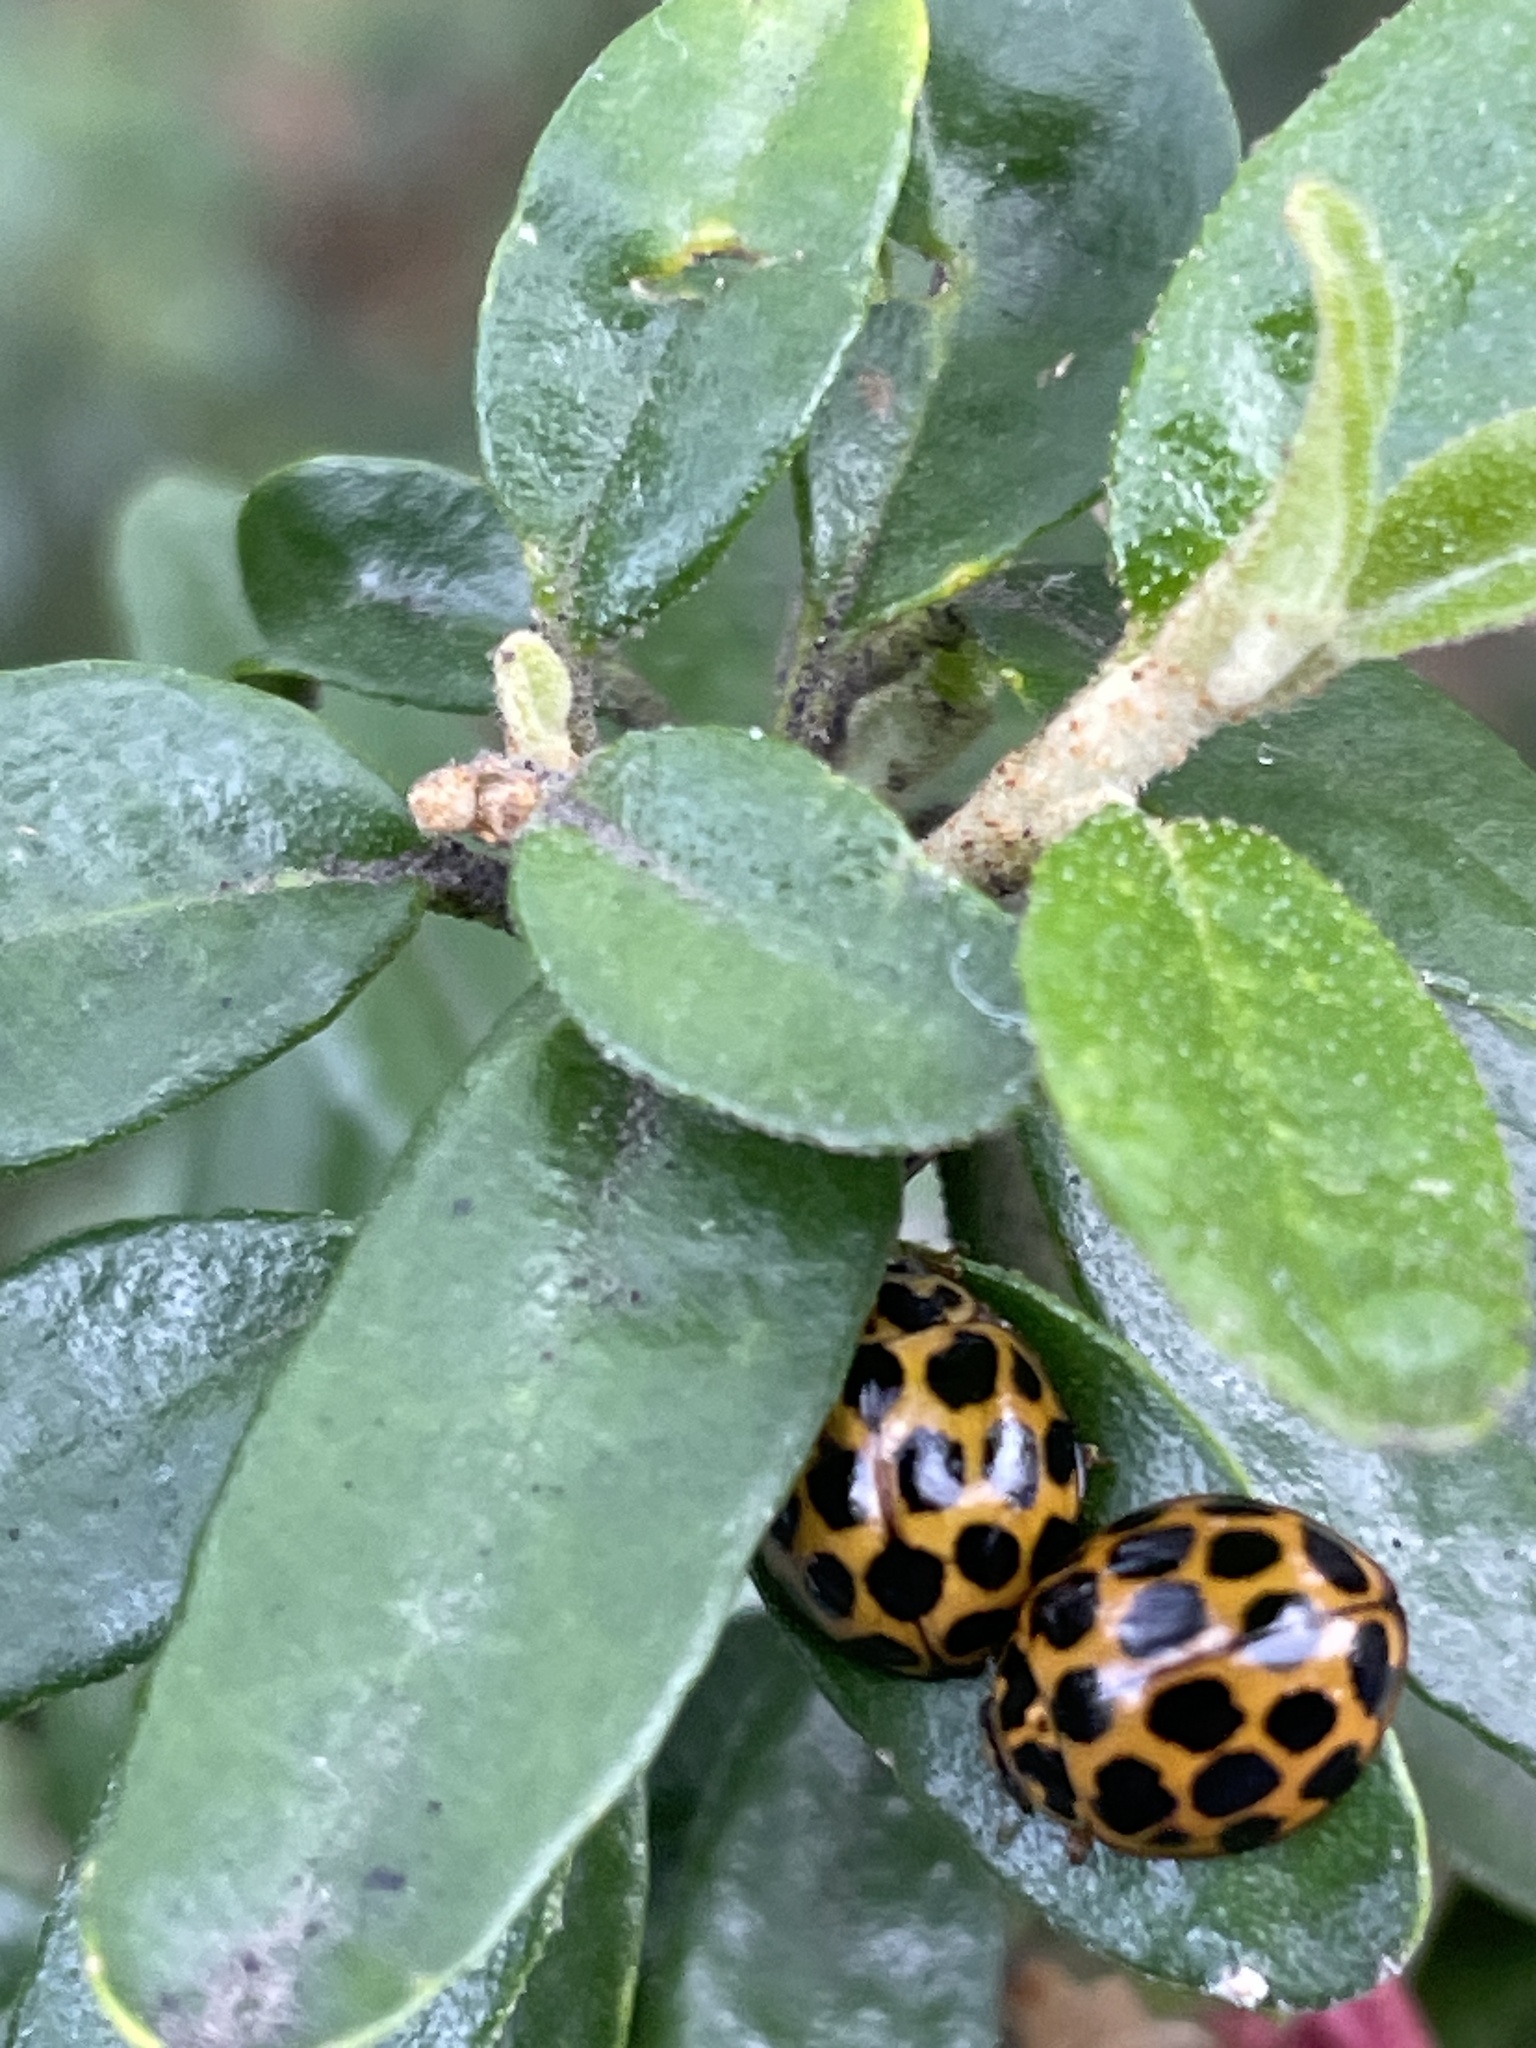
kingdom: Animalia
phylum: Arthropoda
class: Insecta
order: Coleoptera
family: Coccinellidae
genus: Harmonia
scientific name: Harmonia conformis
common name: Common spotted ladybird beetle
